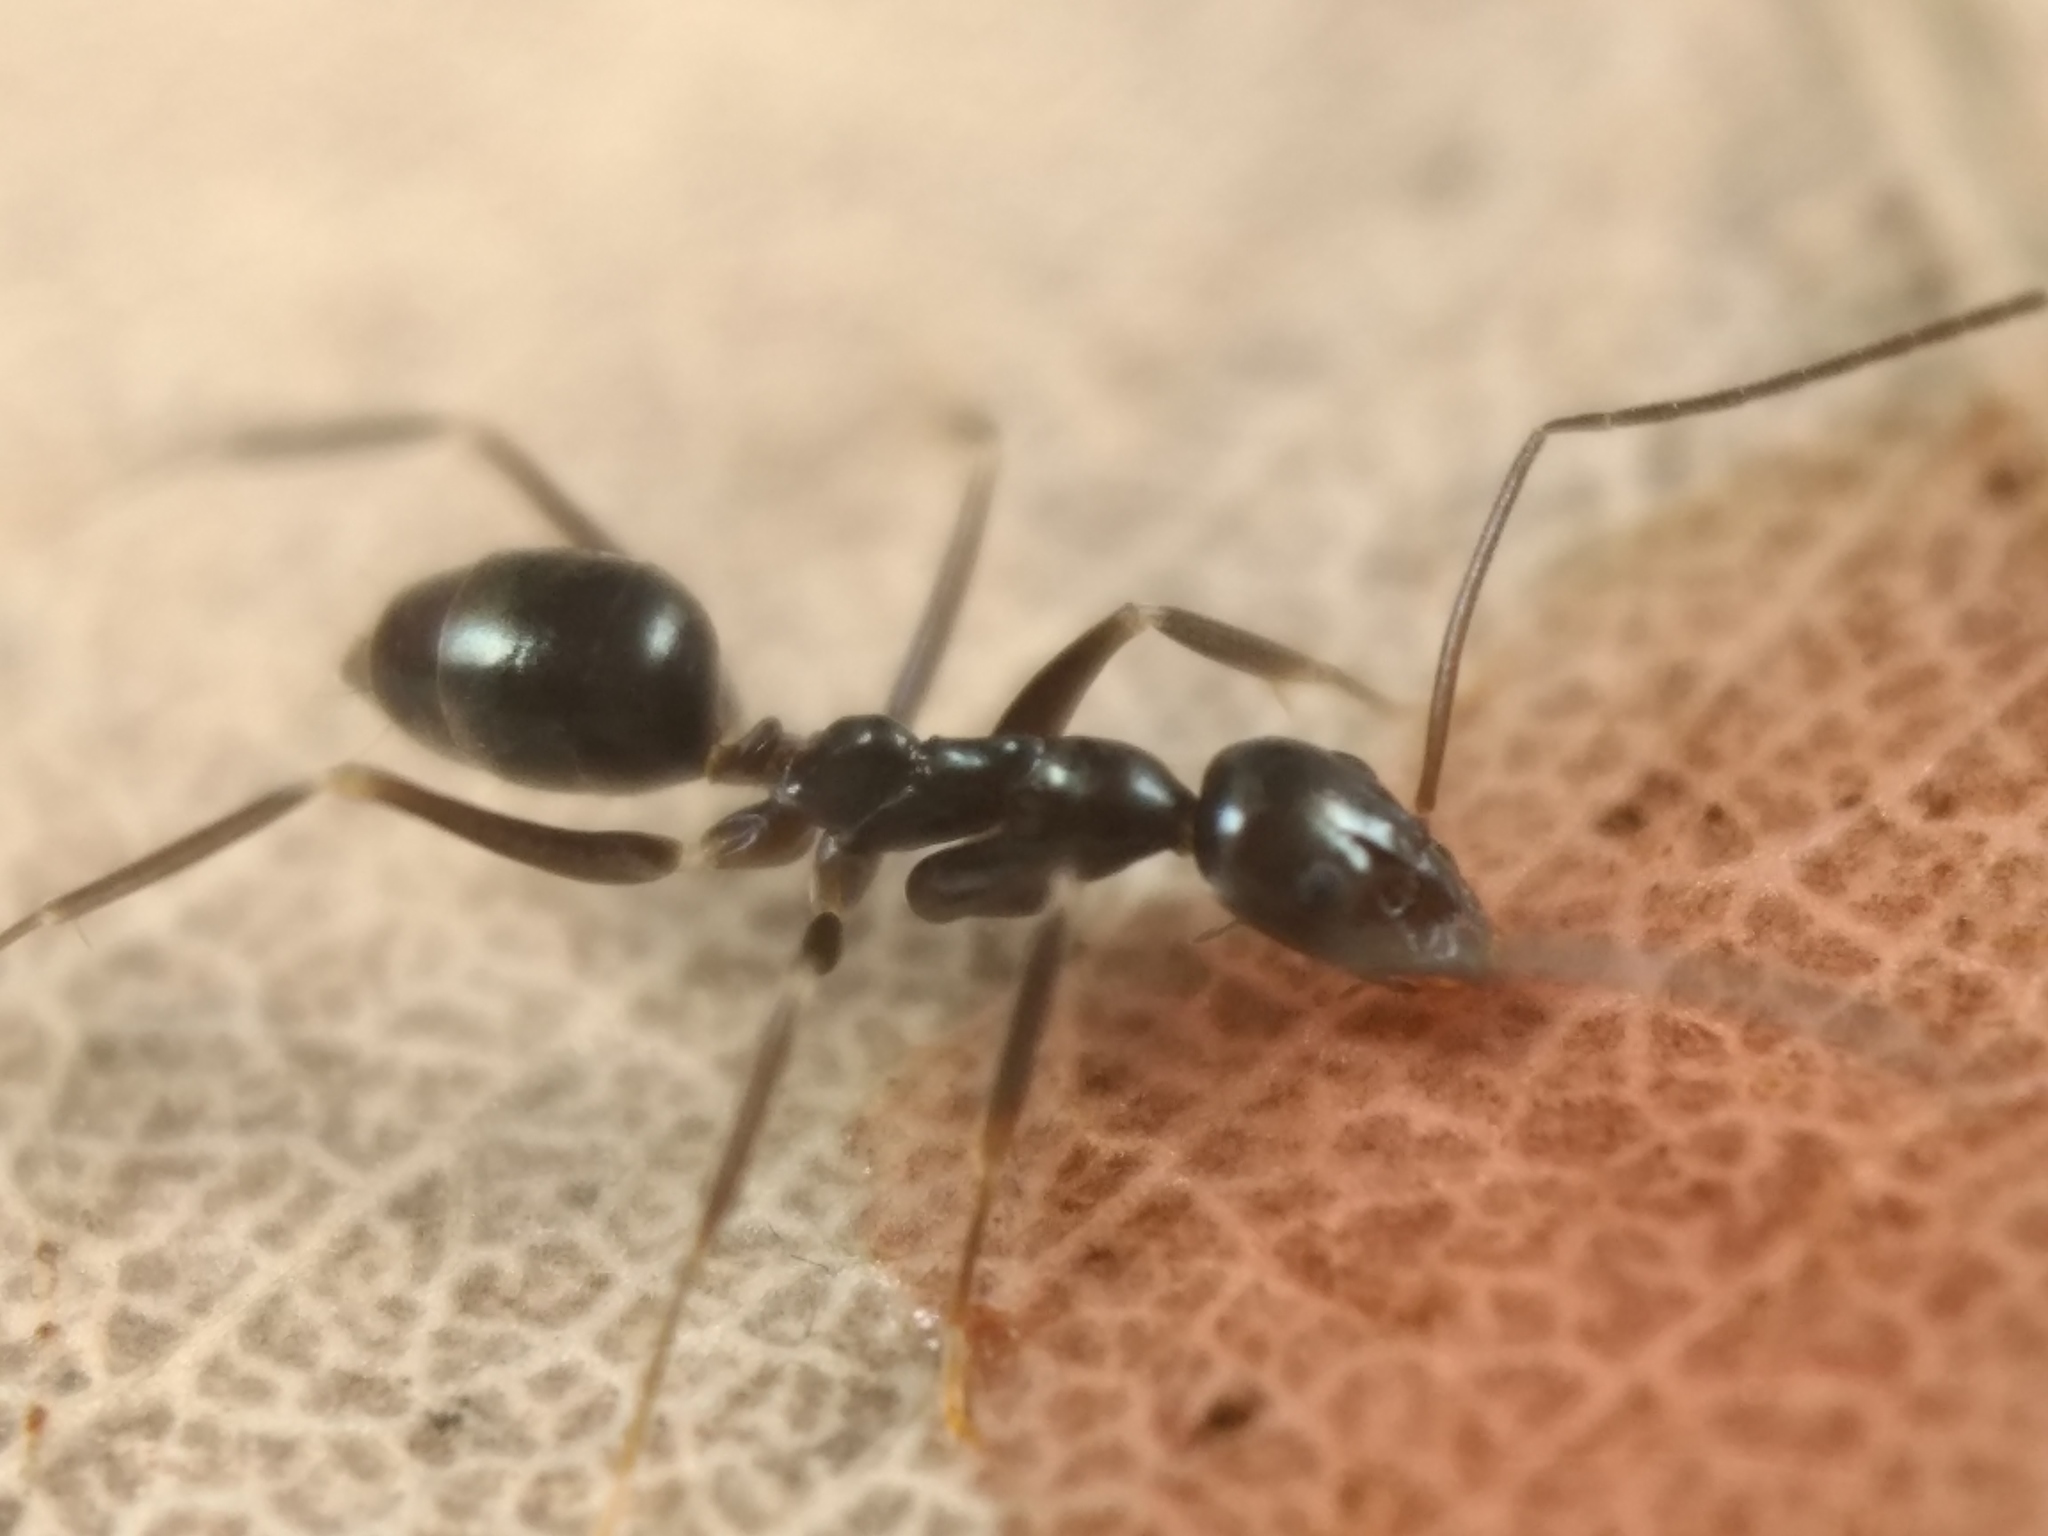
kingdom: Animalia
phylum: Arthropoda
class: Insecta
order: Hymenoptera
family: Formicidae
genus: Leptomyrmex
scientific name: Leptomyrmex burwelli
